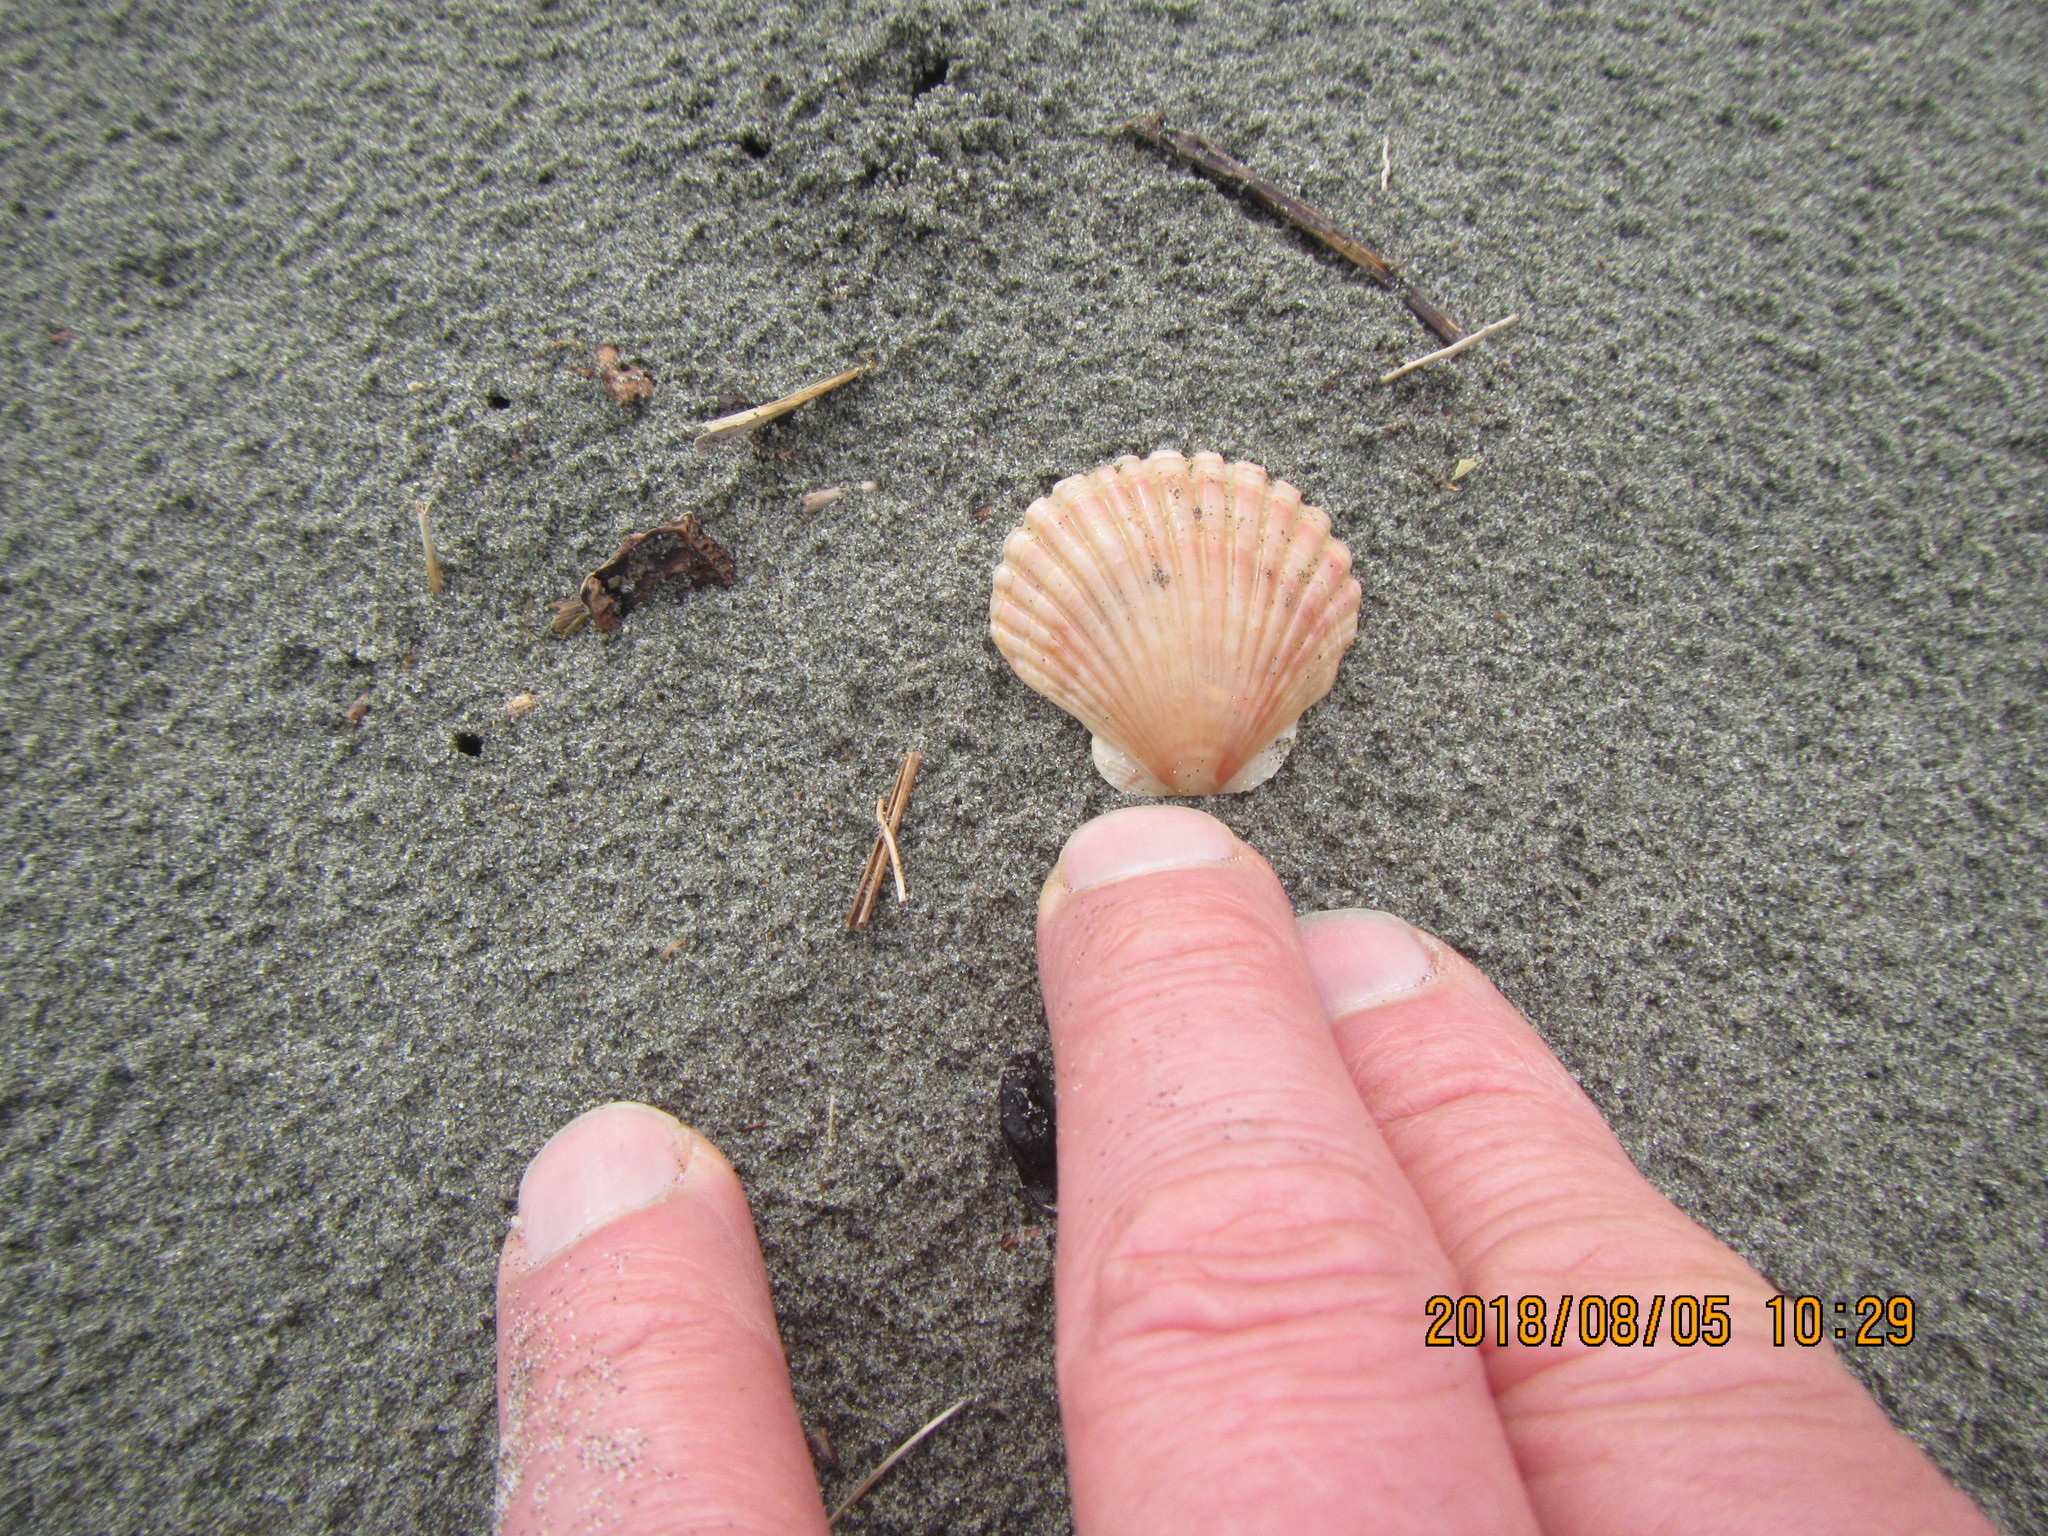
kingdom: Animalia
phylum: Mollusca
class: Bivalvia
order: Pectinida
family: Pectinidae
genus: Pecten
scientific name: Pecten novaezelandiae
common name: New zealand scallop
